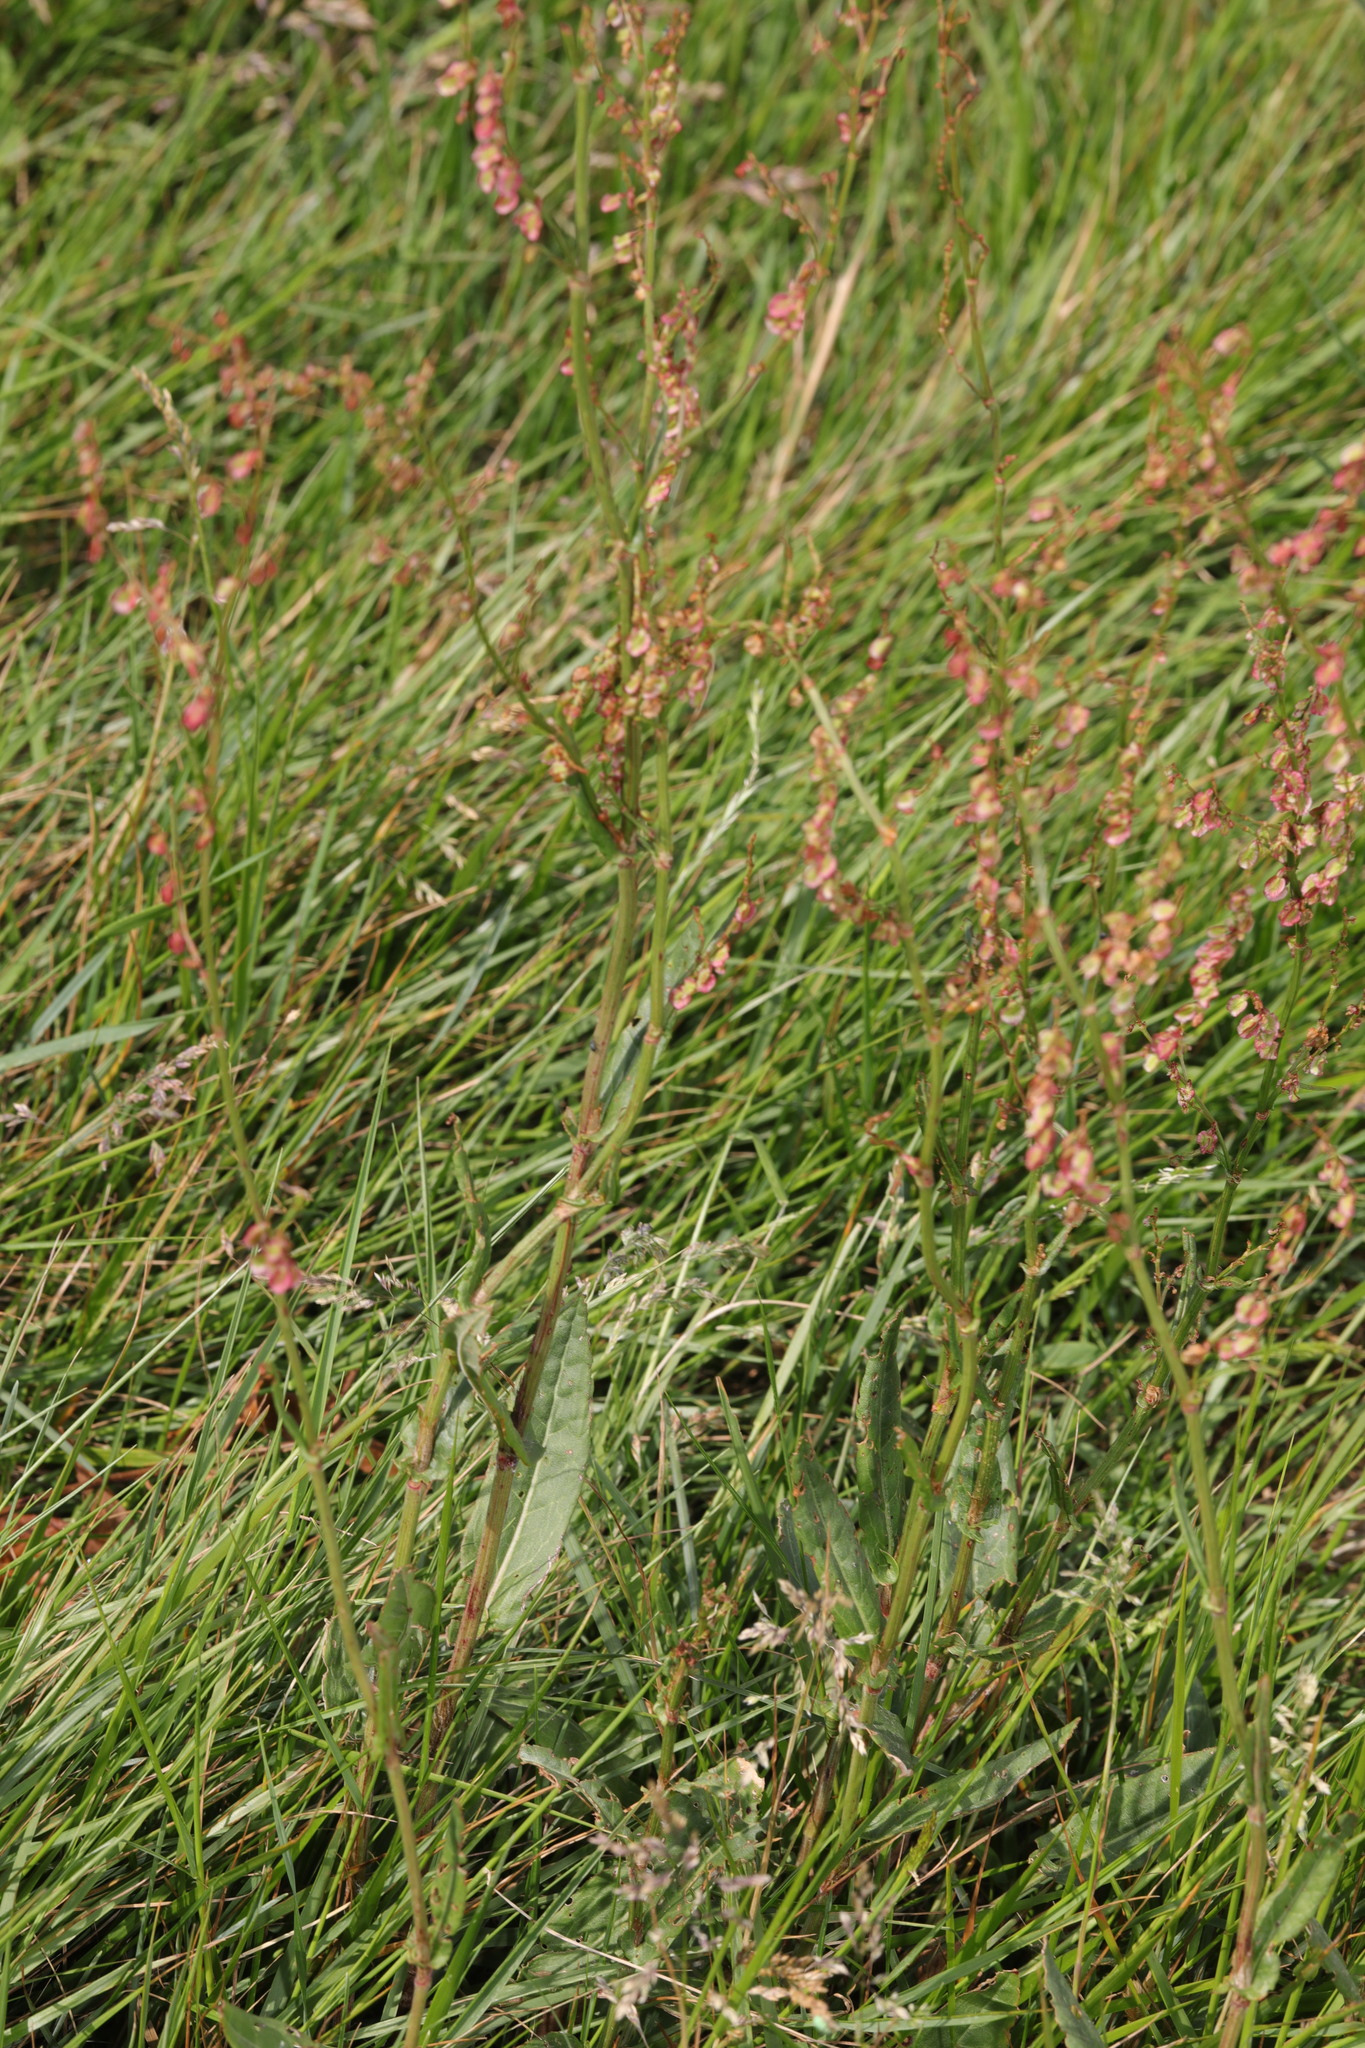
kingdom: Plantae
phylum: Tracheophyta
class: Magnoliopsida
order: Caryophyllales
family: Polygonaceae
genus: Rumex
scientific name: Rumex acetosa
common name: Garden sorrel
